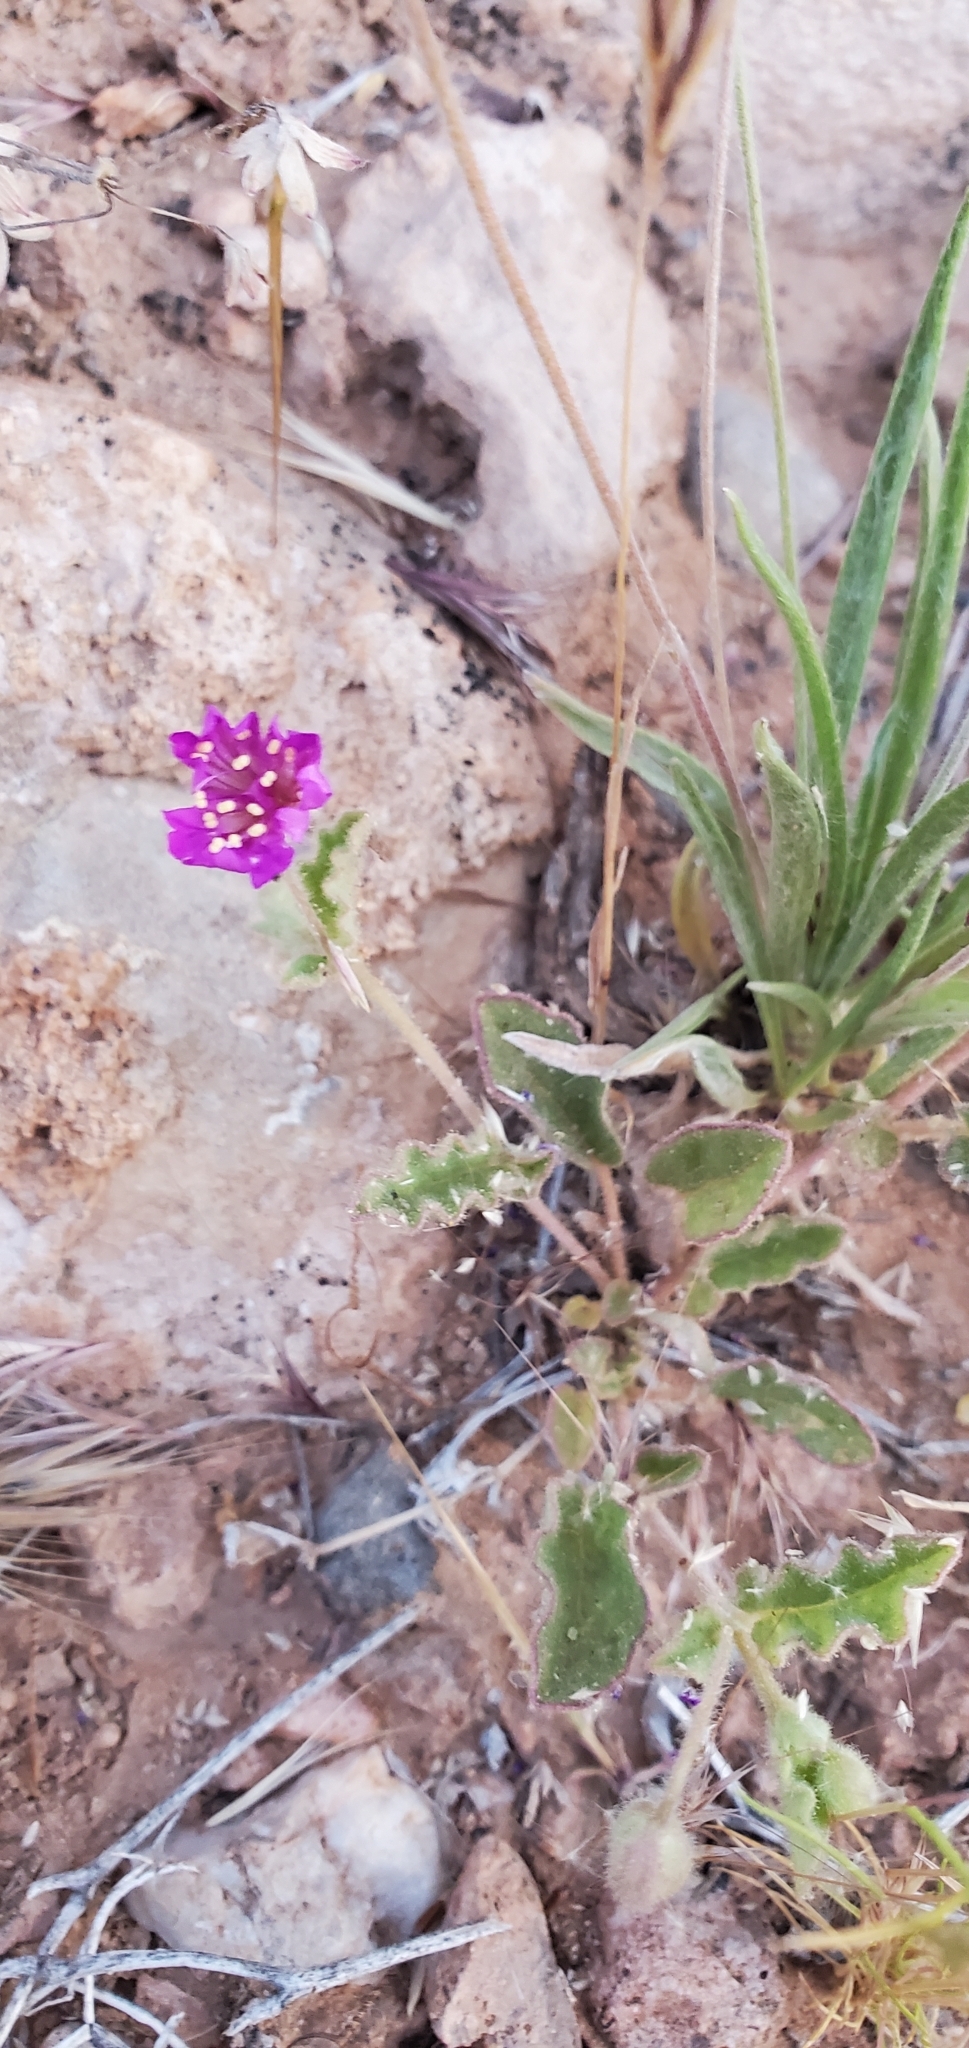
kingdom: Plantae
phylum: Tracheophyta
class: Magnoliopsida
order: Caryophyllales
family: Nyctaginaceae
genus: Allionia
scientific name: Allionia incarnata
